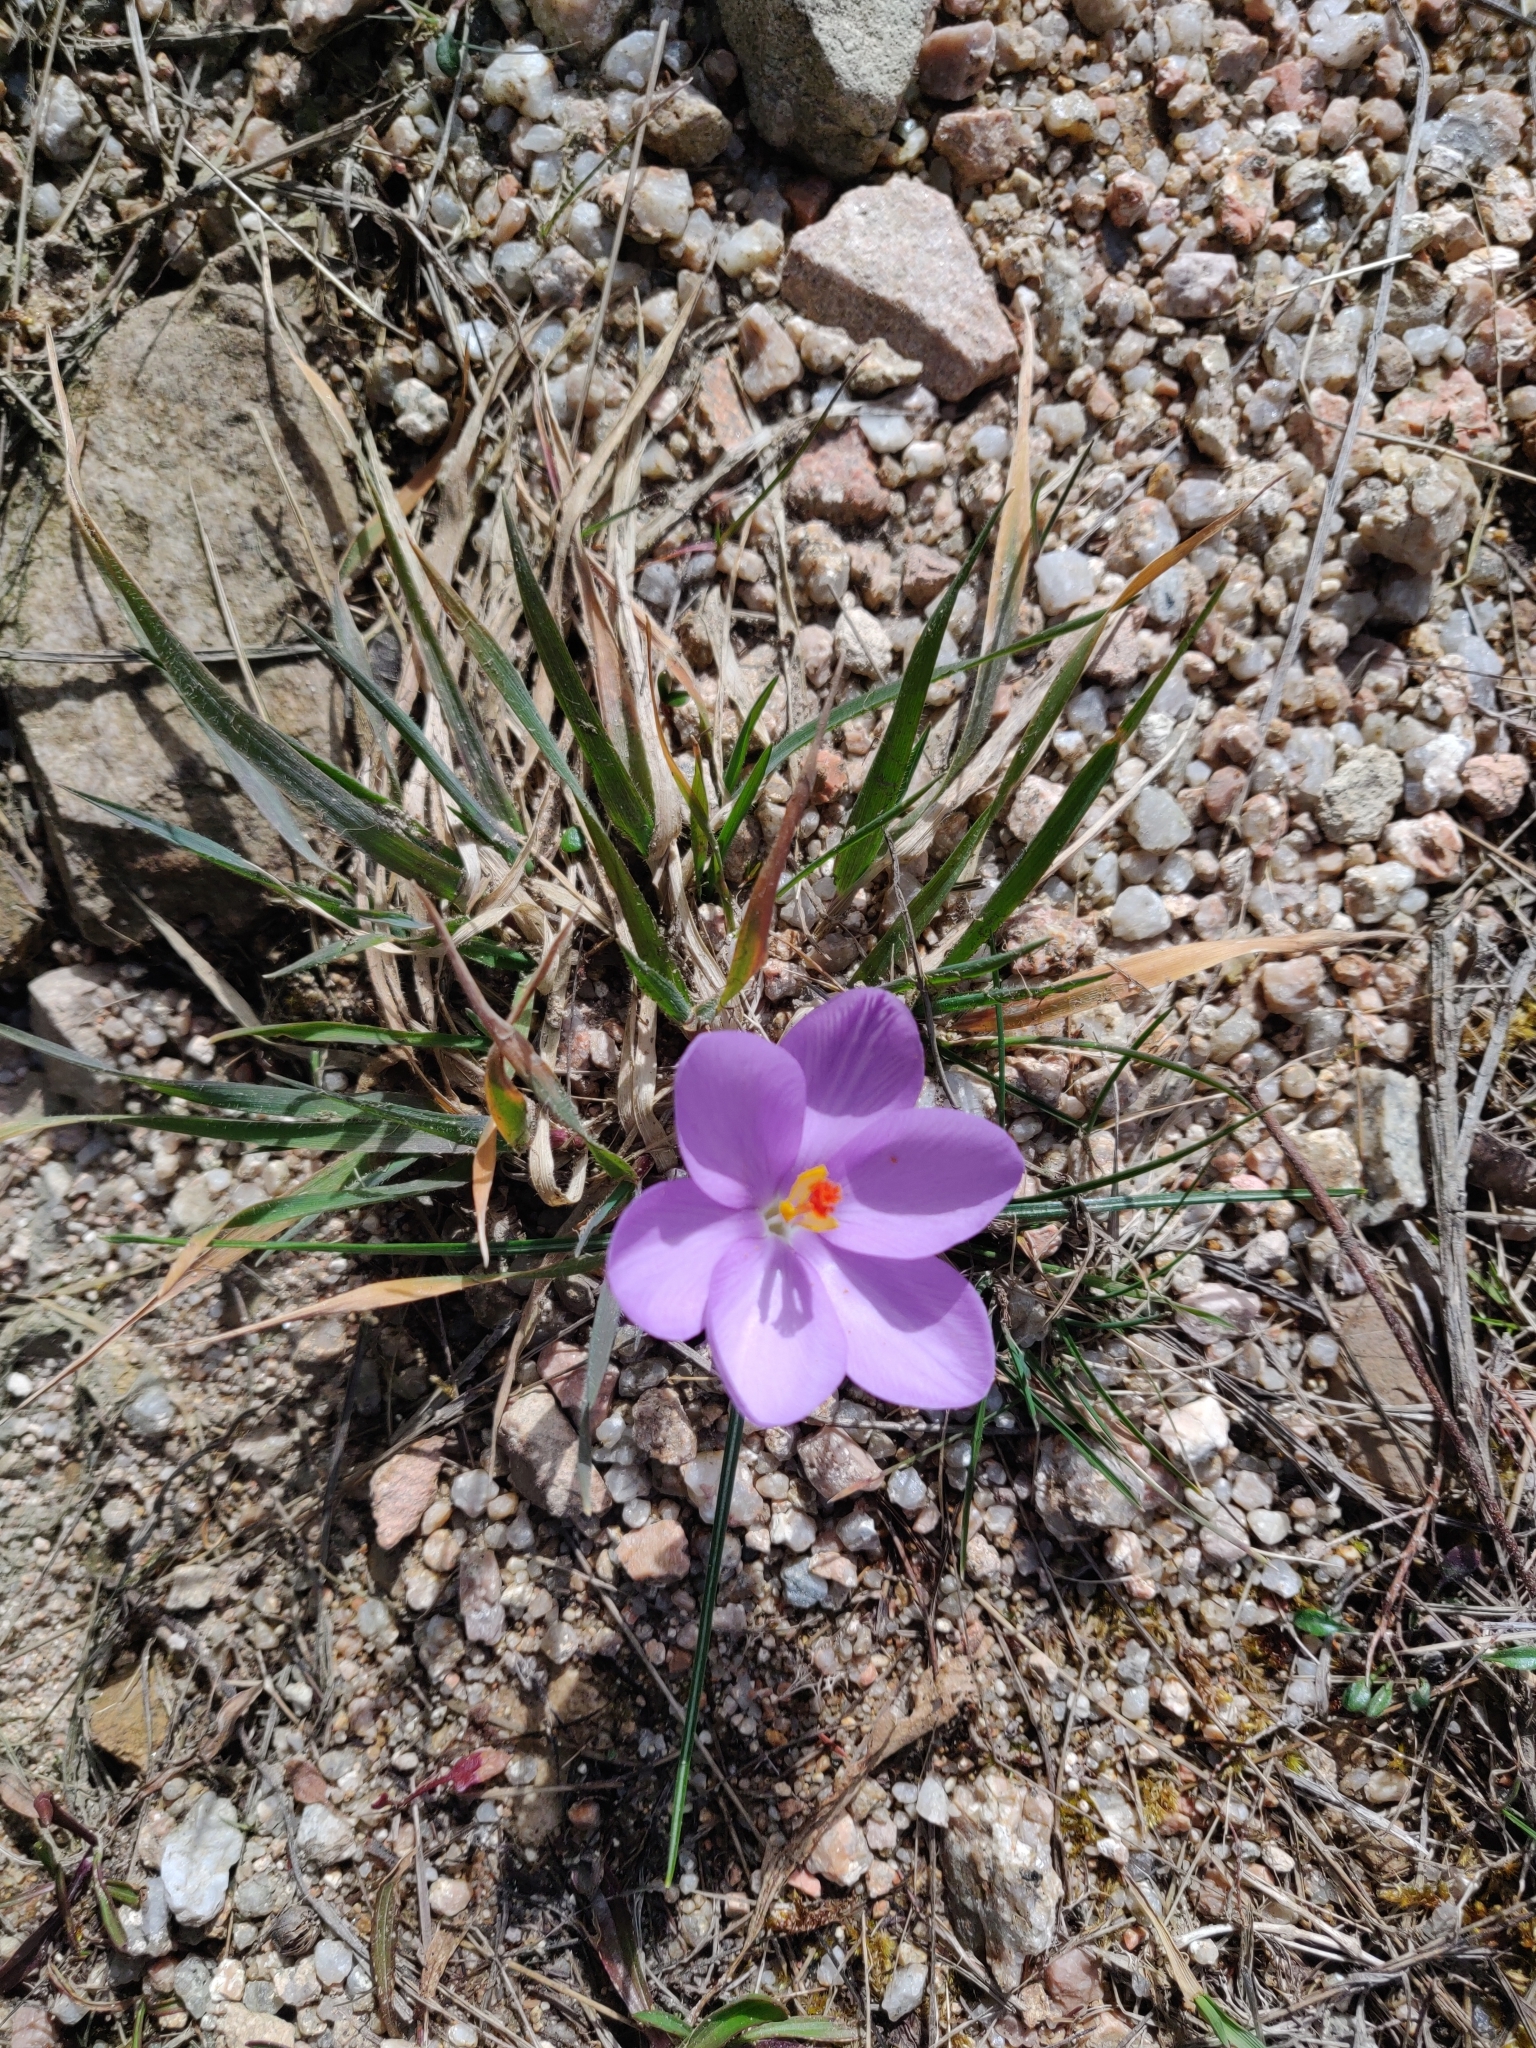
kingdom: Plantae
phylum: Tracheophyta
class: Liliopsida
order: Asparagales
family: Iridaceae
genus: Crocus
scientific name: Crocus minimus
